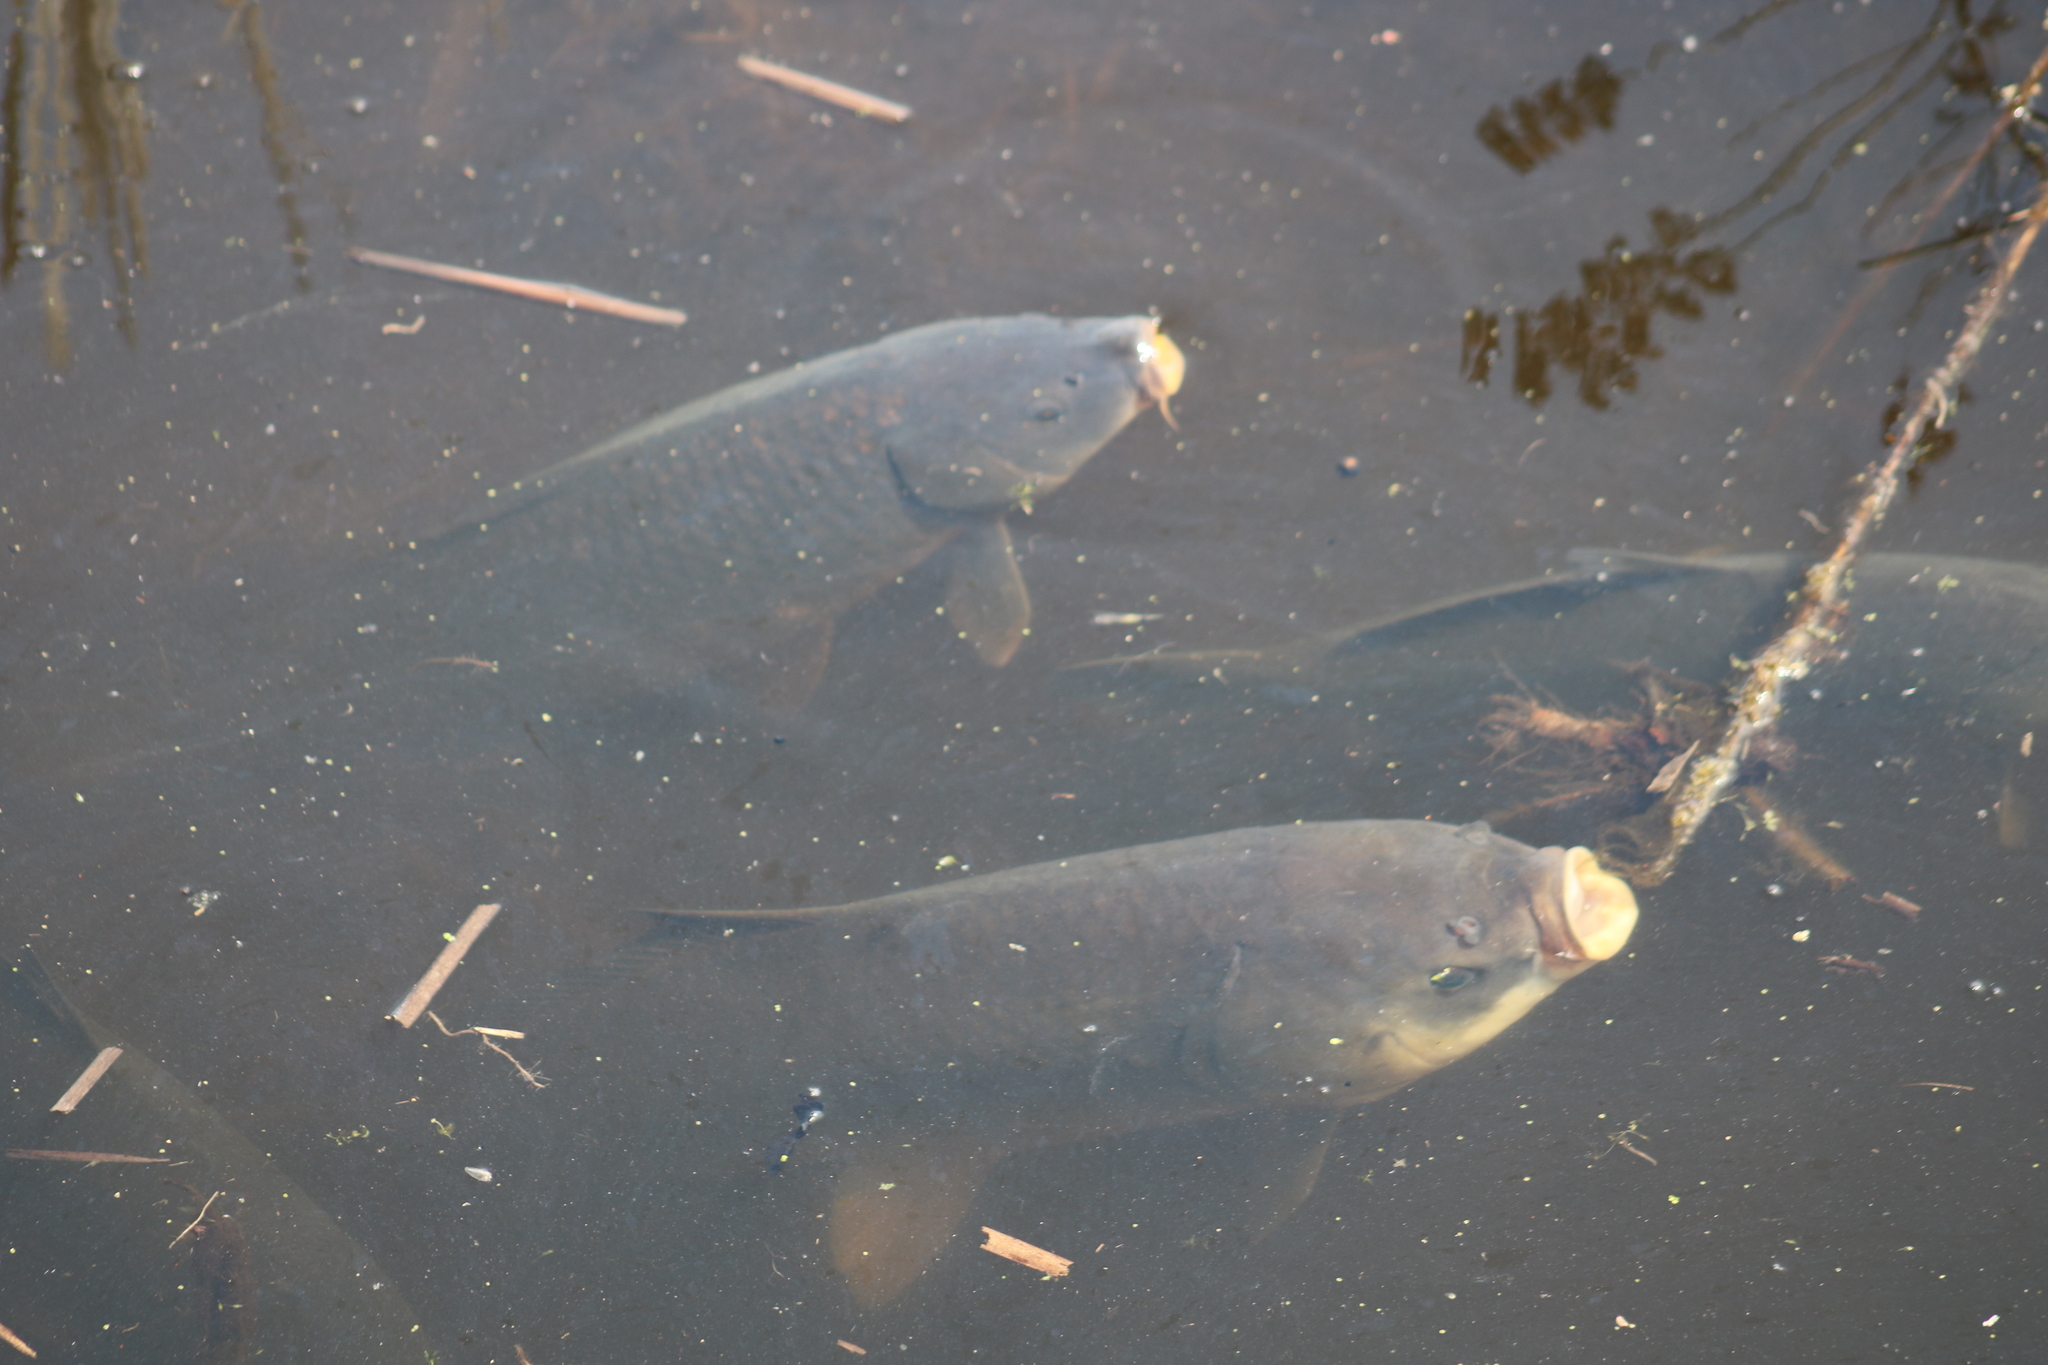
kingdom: Animalia
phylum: Chordata
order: Cypriniformes
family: Cyprinidae
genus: Cyprinus
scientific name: Cyprinus carpio
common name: Common carp
